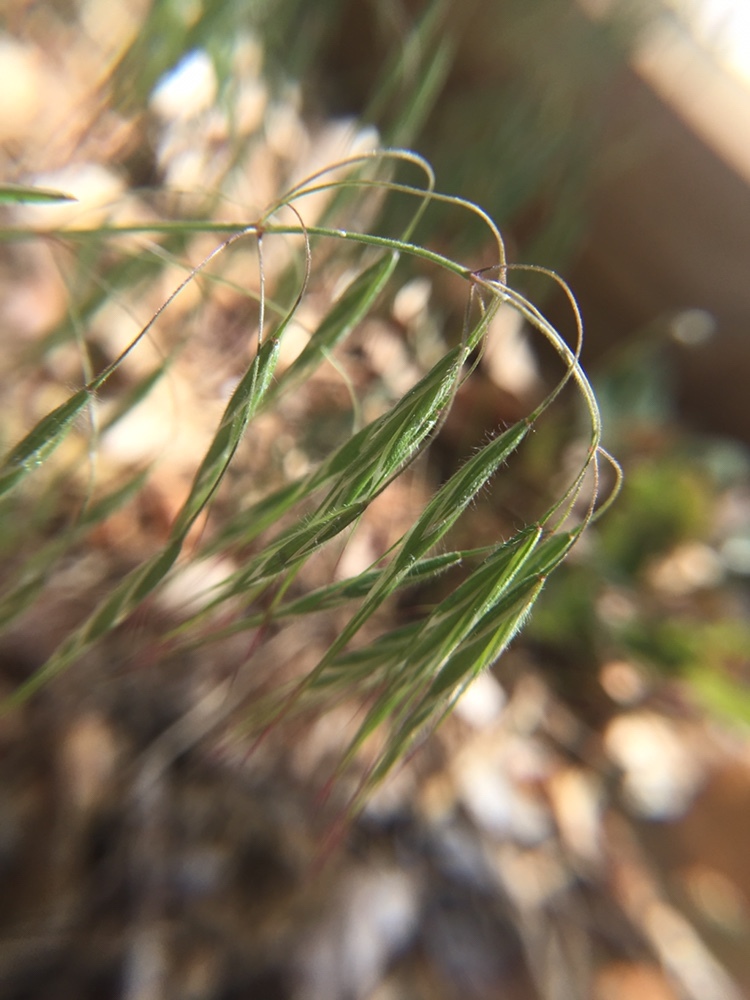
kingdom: Plantae
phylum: Tracheophyta
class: Liliopsida
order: Poales
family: Poaceae
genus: Bromus
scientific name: Bromus tectorum
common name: Cheatgrass
